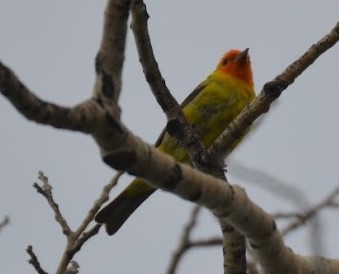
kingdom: Animalia
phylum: Chordata
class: Aves
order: Passeriformes
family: Cardinalidae
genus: Piranga
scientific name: Piranga ludoviciana
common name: Western tanager
